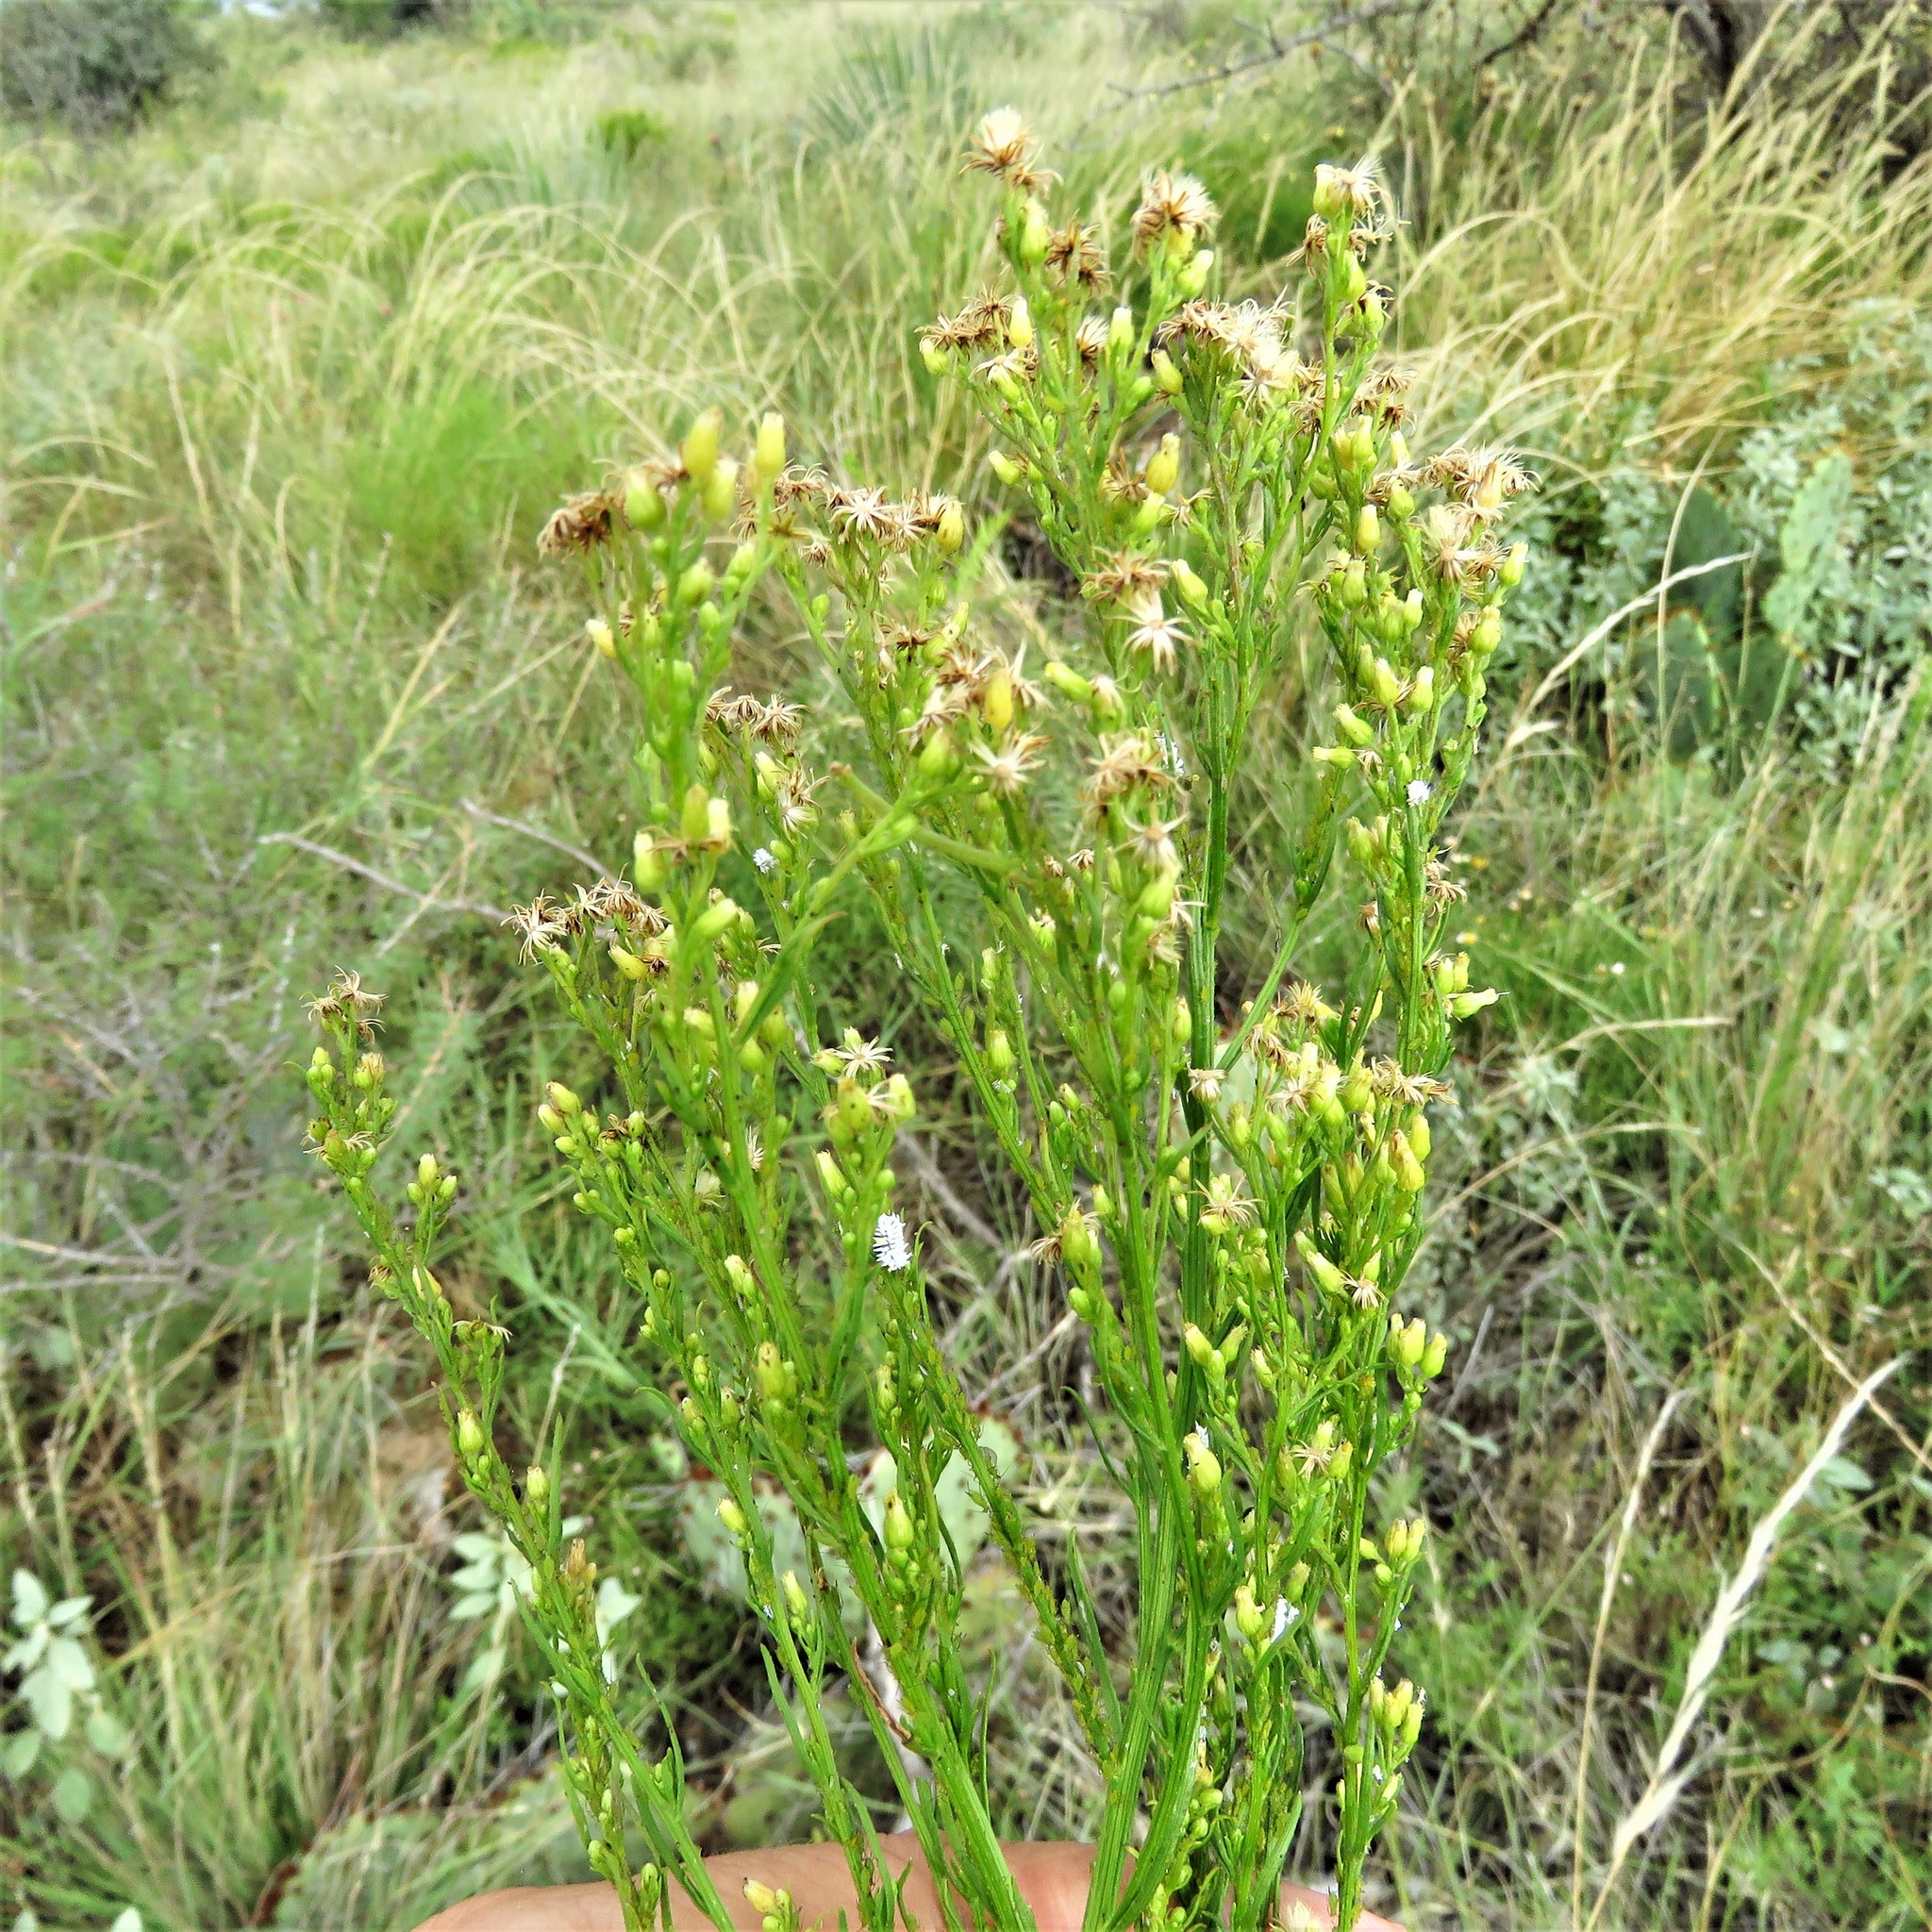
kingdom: Plantae
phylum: Tracheophyta
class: Magnoliopsida
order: Asterales
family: Asteraceae
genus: Erigeron
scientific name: Erigeron canadensis
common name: Canadian fleabane
